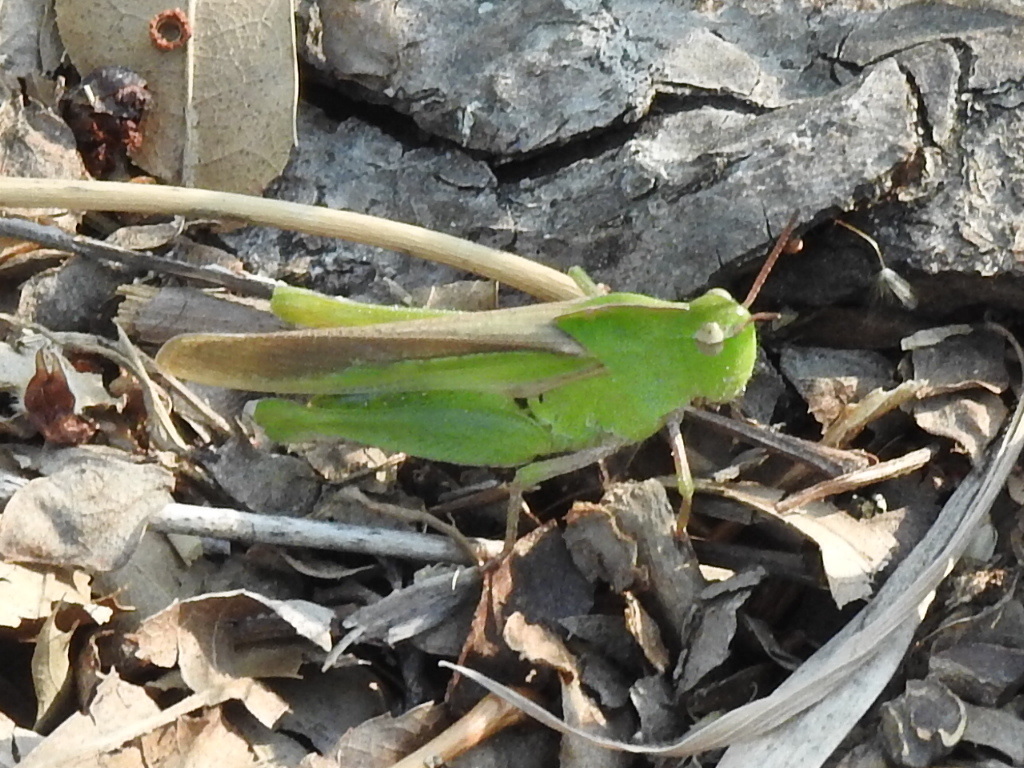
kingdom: Animalia
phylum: Arthropoda
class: Insecta
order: Orthoptera
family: Acrididae
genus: Chortophaga
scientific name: Chortophaga viridifasciata
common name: Green-striped grasshopper
